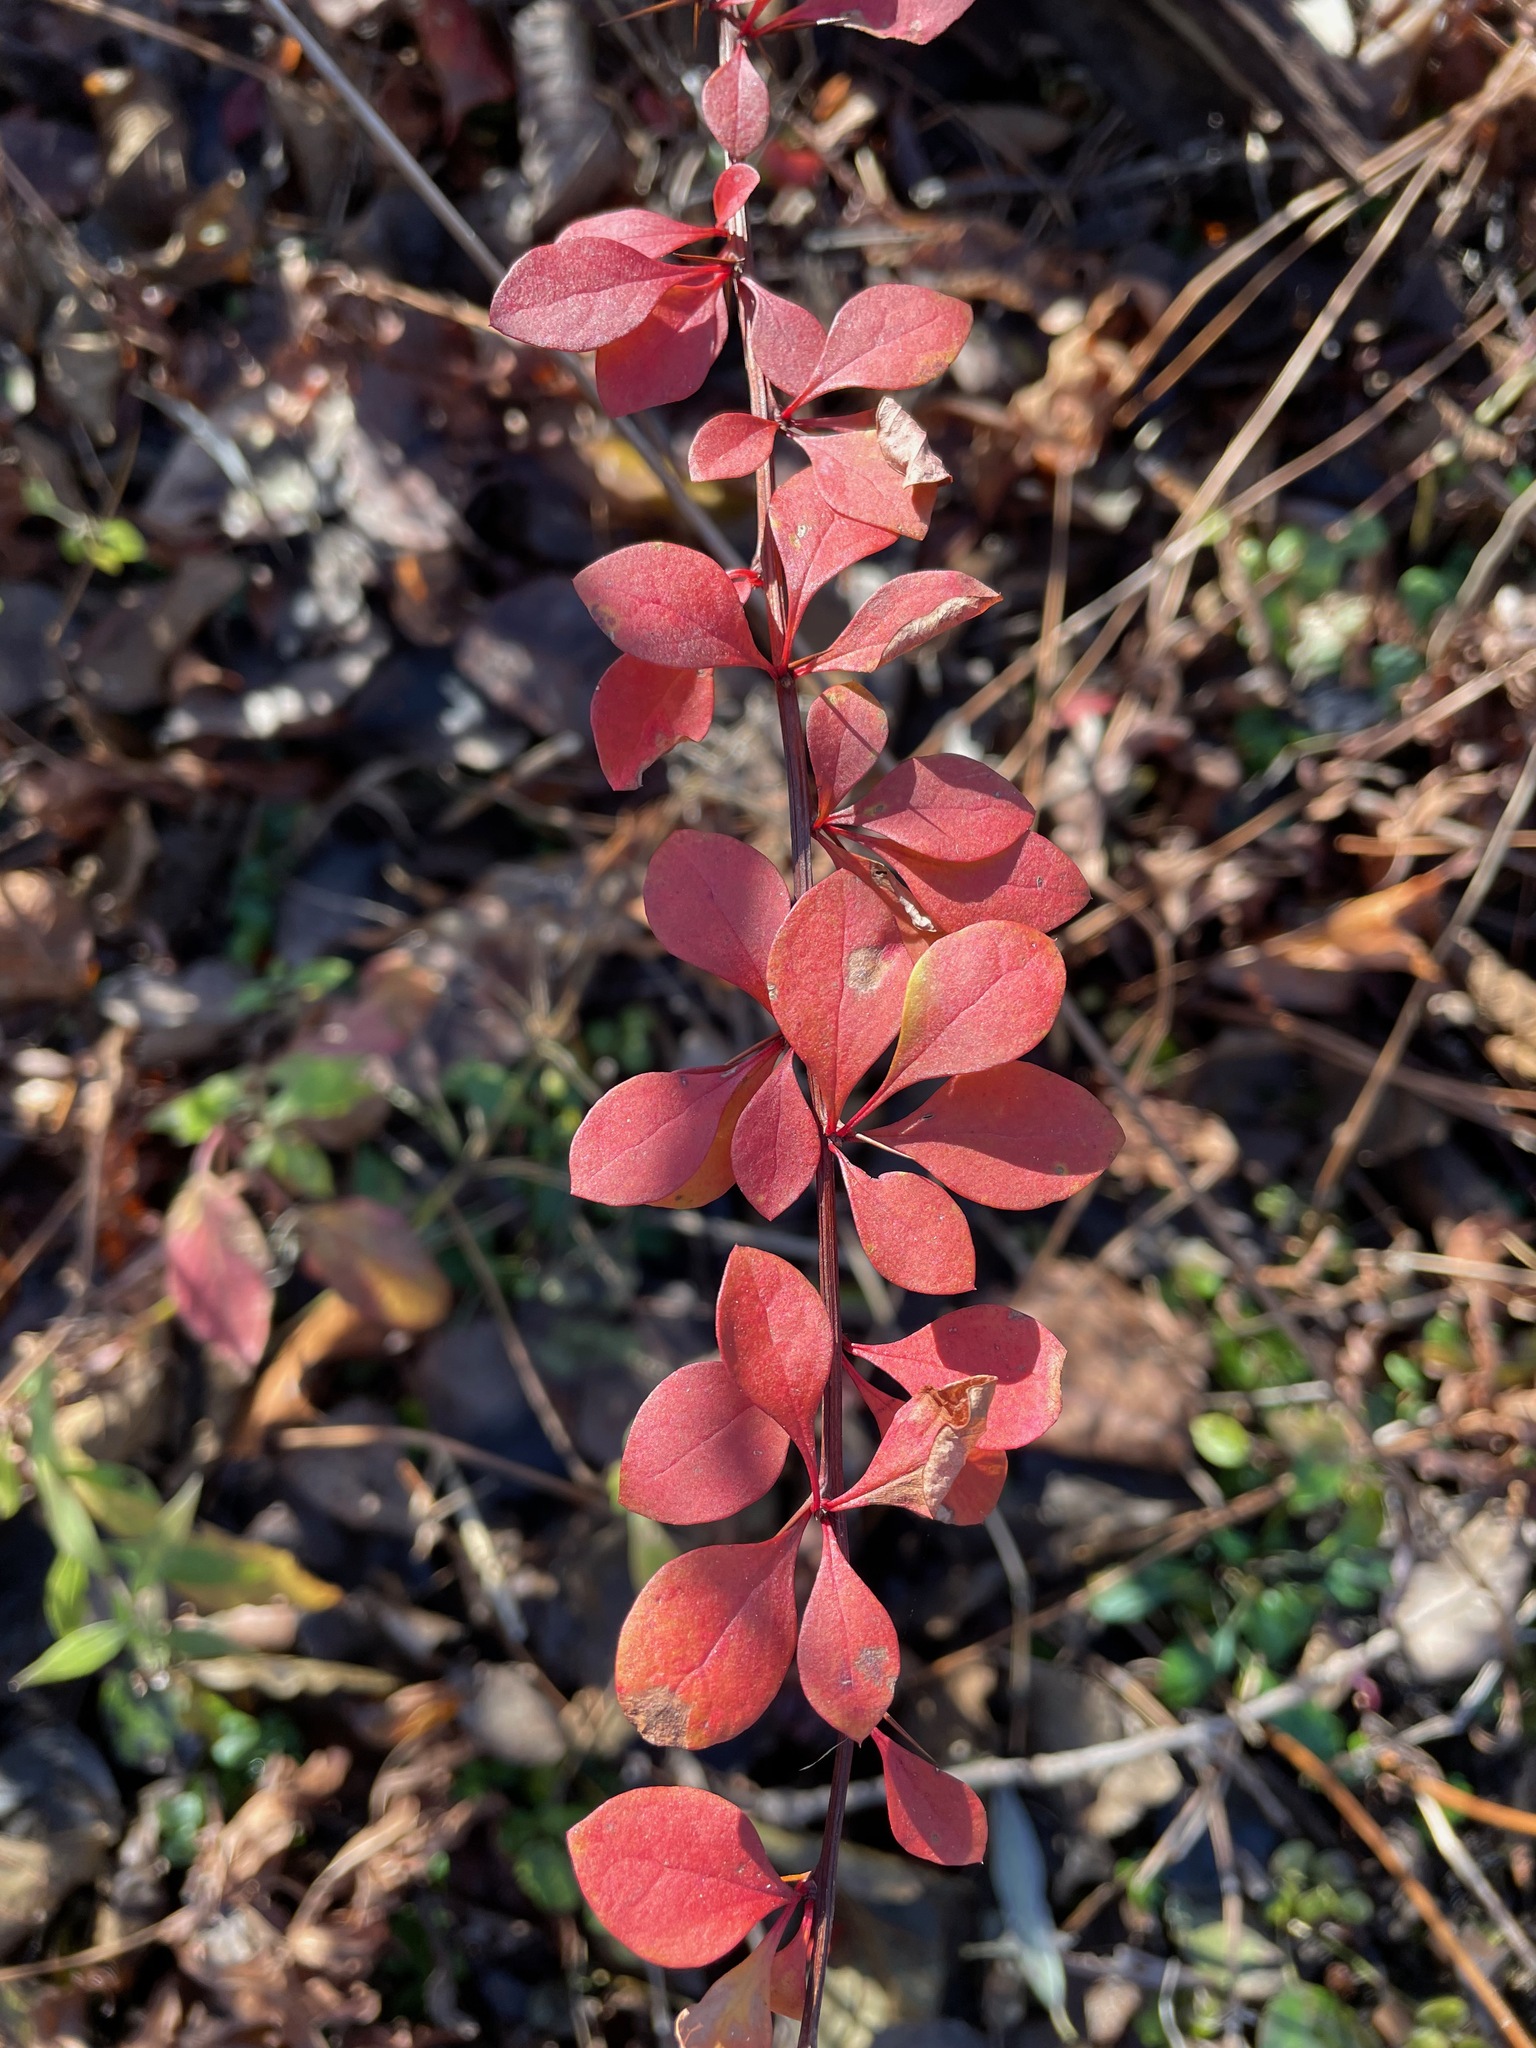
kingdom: Plantae
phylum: Tracheophyta
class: Magnoliopsida
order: Ranunculales
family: Berberidaceae
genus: Berberis
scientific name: Berberis thunbergii
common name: Japanese barberry
